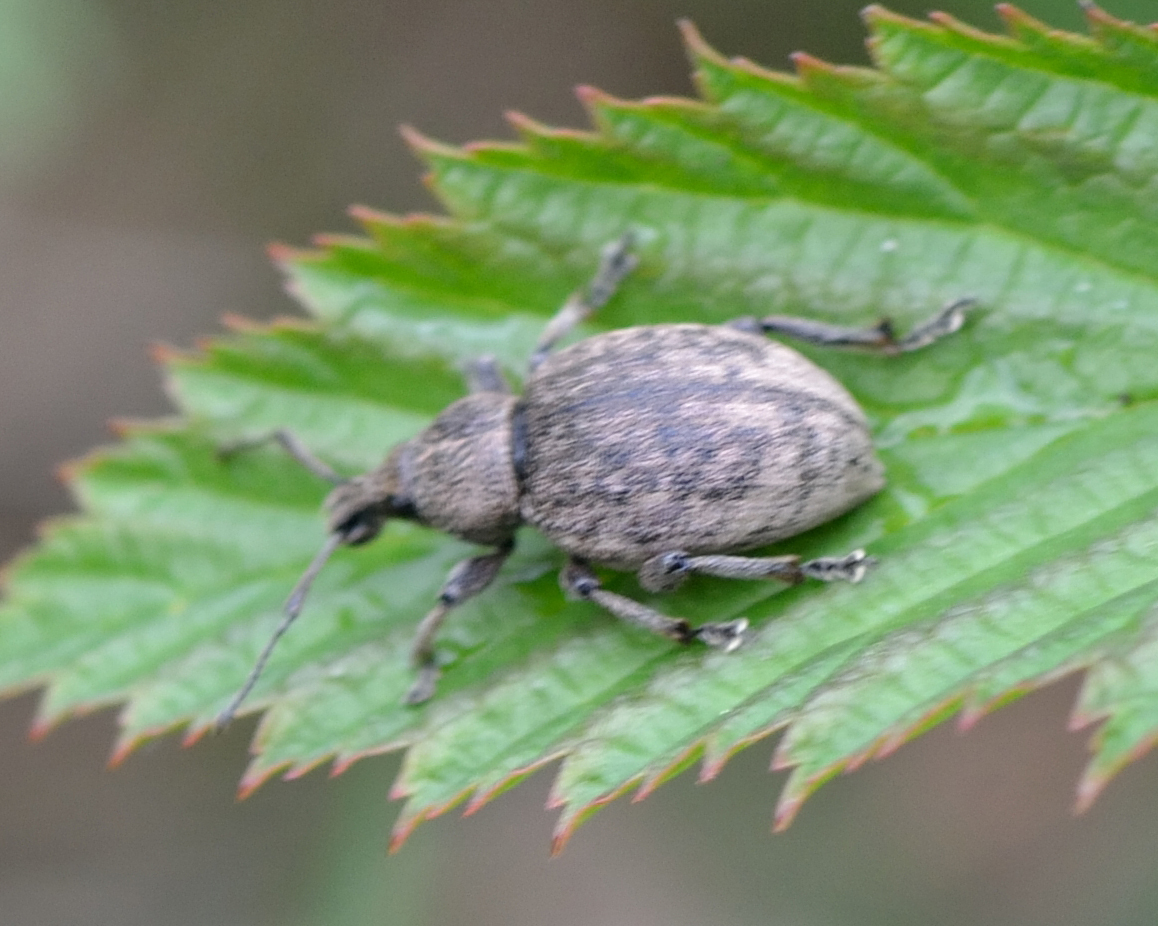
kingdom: Animalia
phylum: Arthropoda
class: Insecta
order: Coleoptera
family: Curculionidae
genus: Otiorhynchus
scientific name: Otiorhynchus ligustici
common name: Weevil
